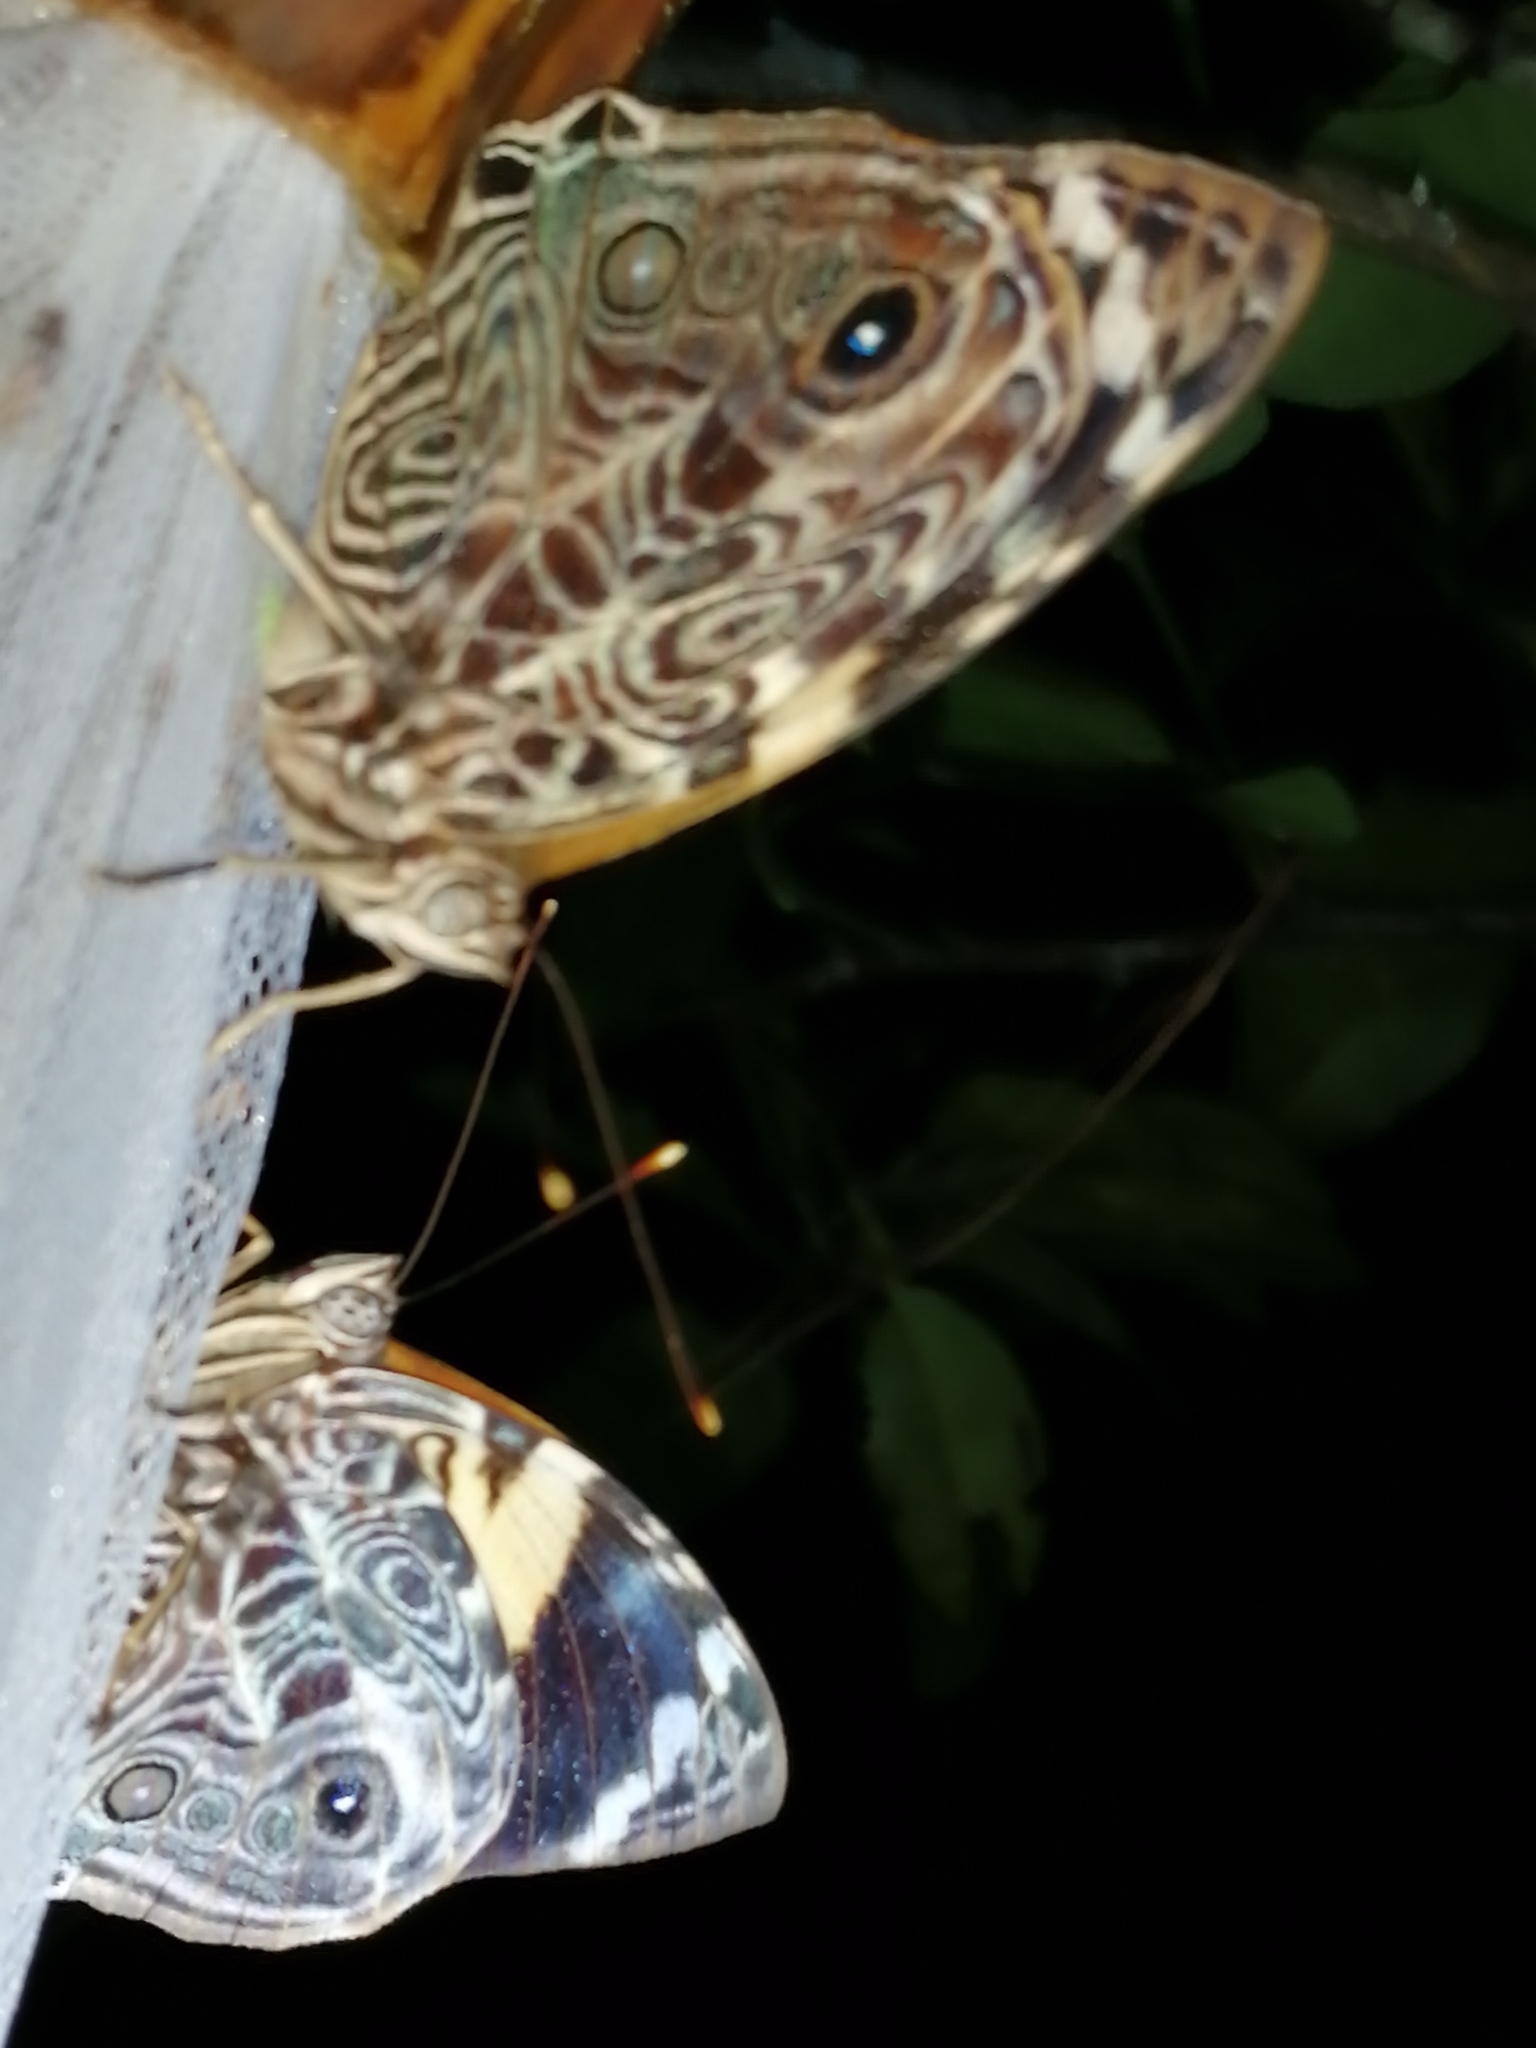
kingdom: Animalia
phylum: Arthropoda
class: Insecta
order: Lepidoptera
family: Nymphalidae
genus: Smyrna
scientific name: Smyrna blomfildia
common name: Blomfild's beauty
